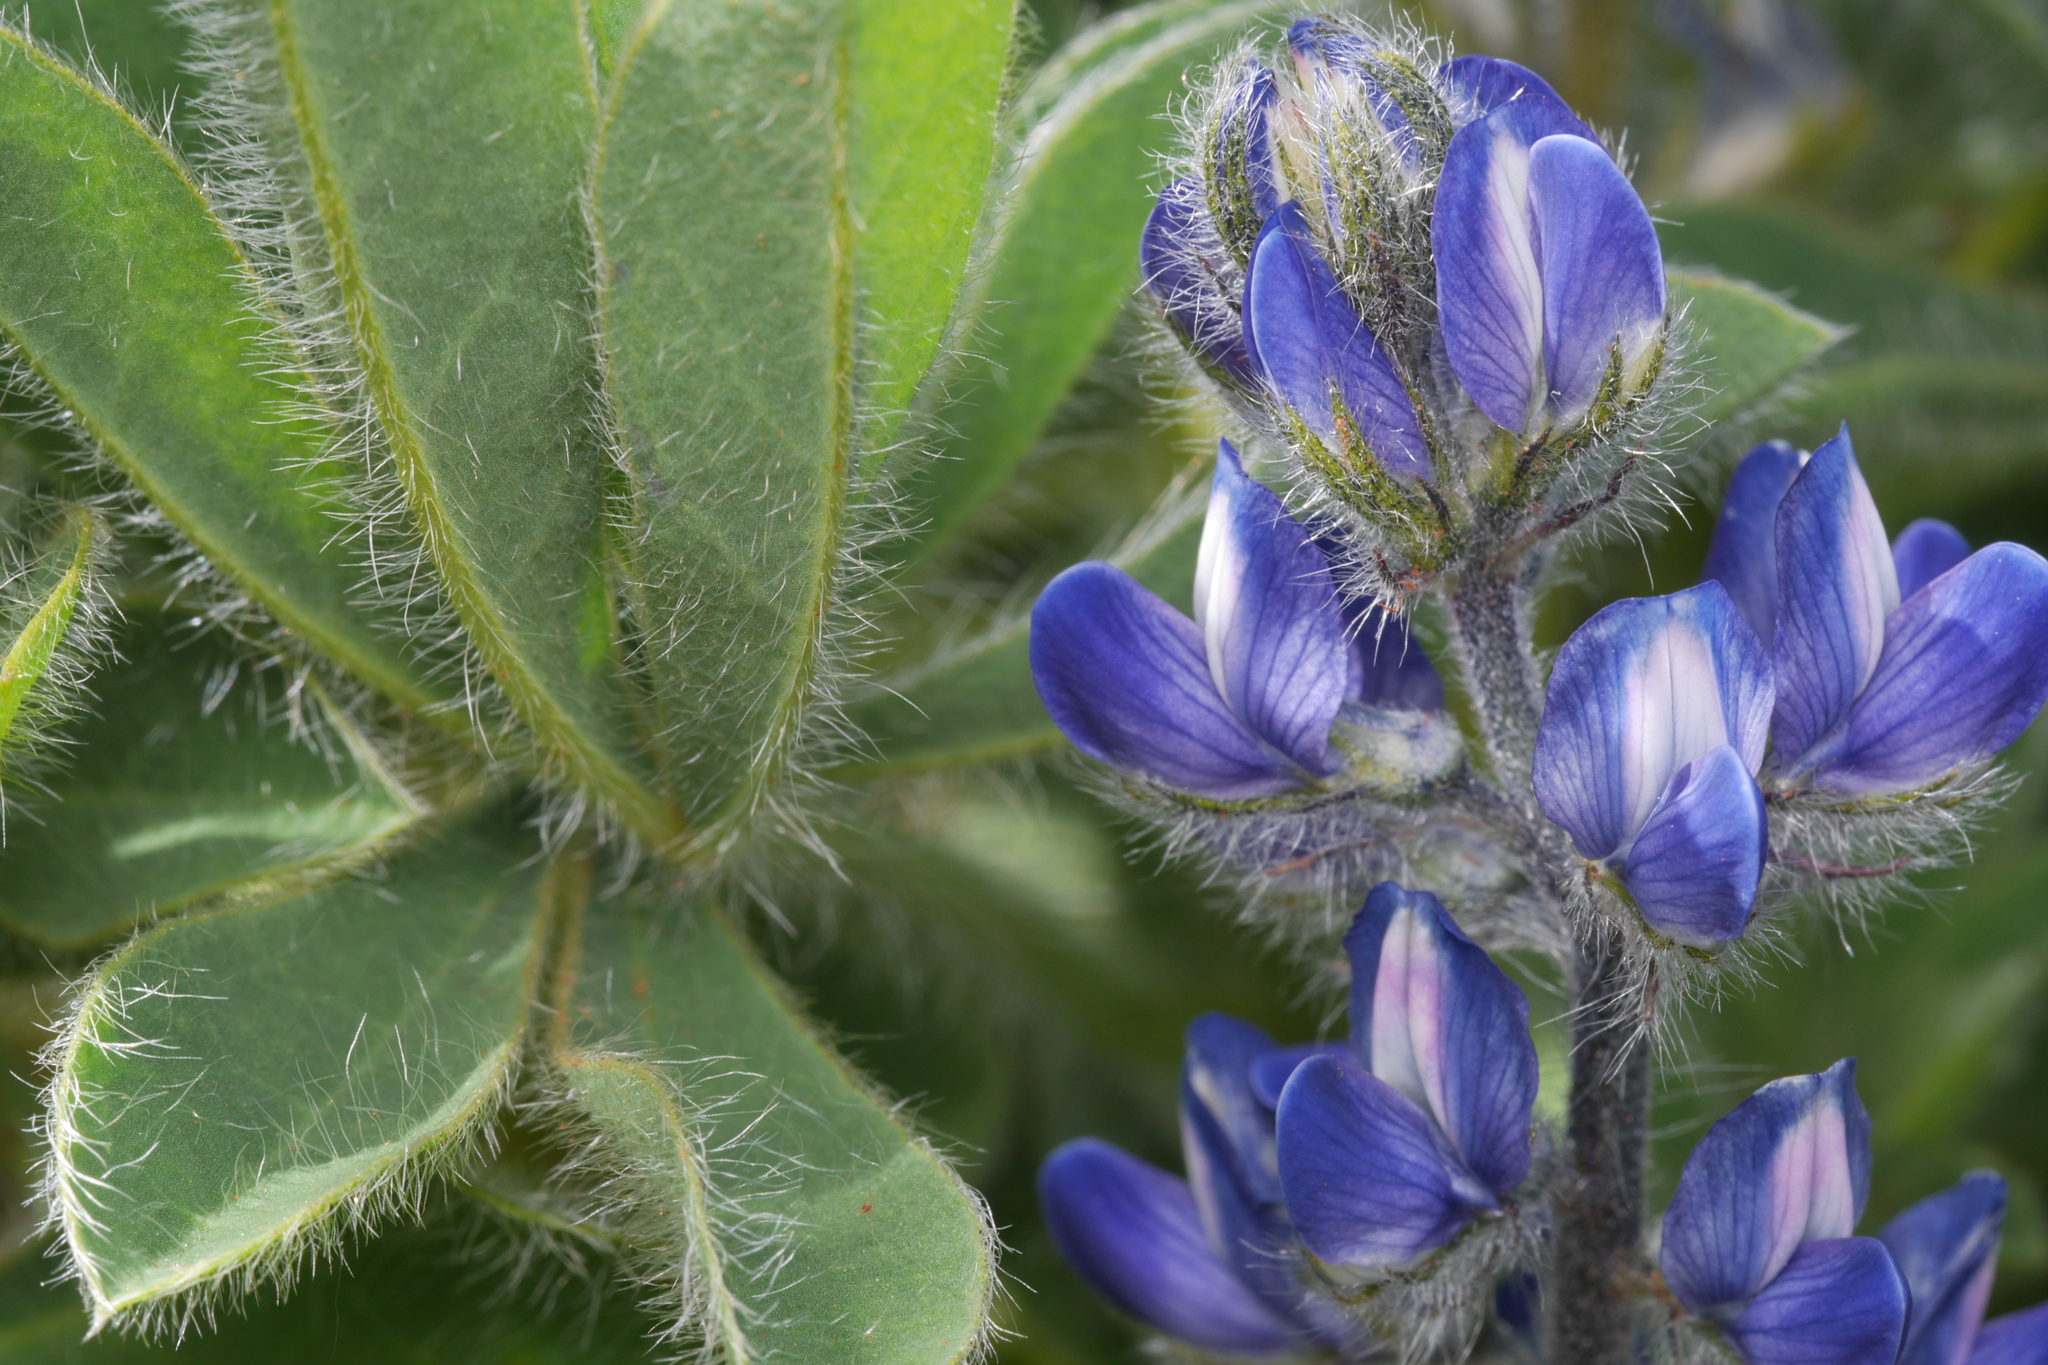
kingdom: Plantae
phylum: Tracheophyta
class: Magnoliopsida
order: Fabales
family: Fabaceae
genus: Lupinus
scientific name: Lupinus gussoneanus
